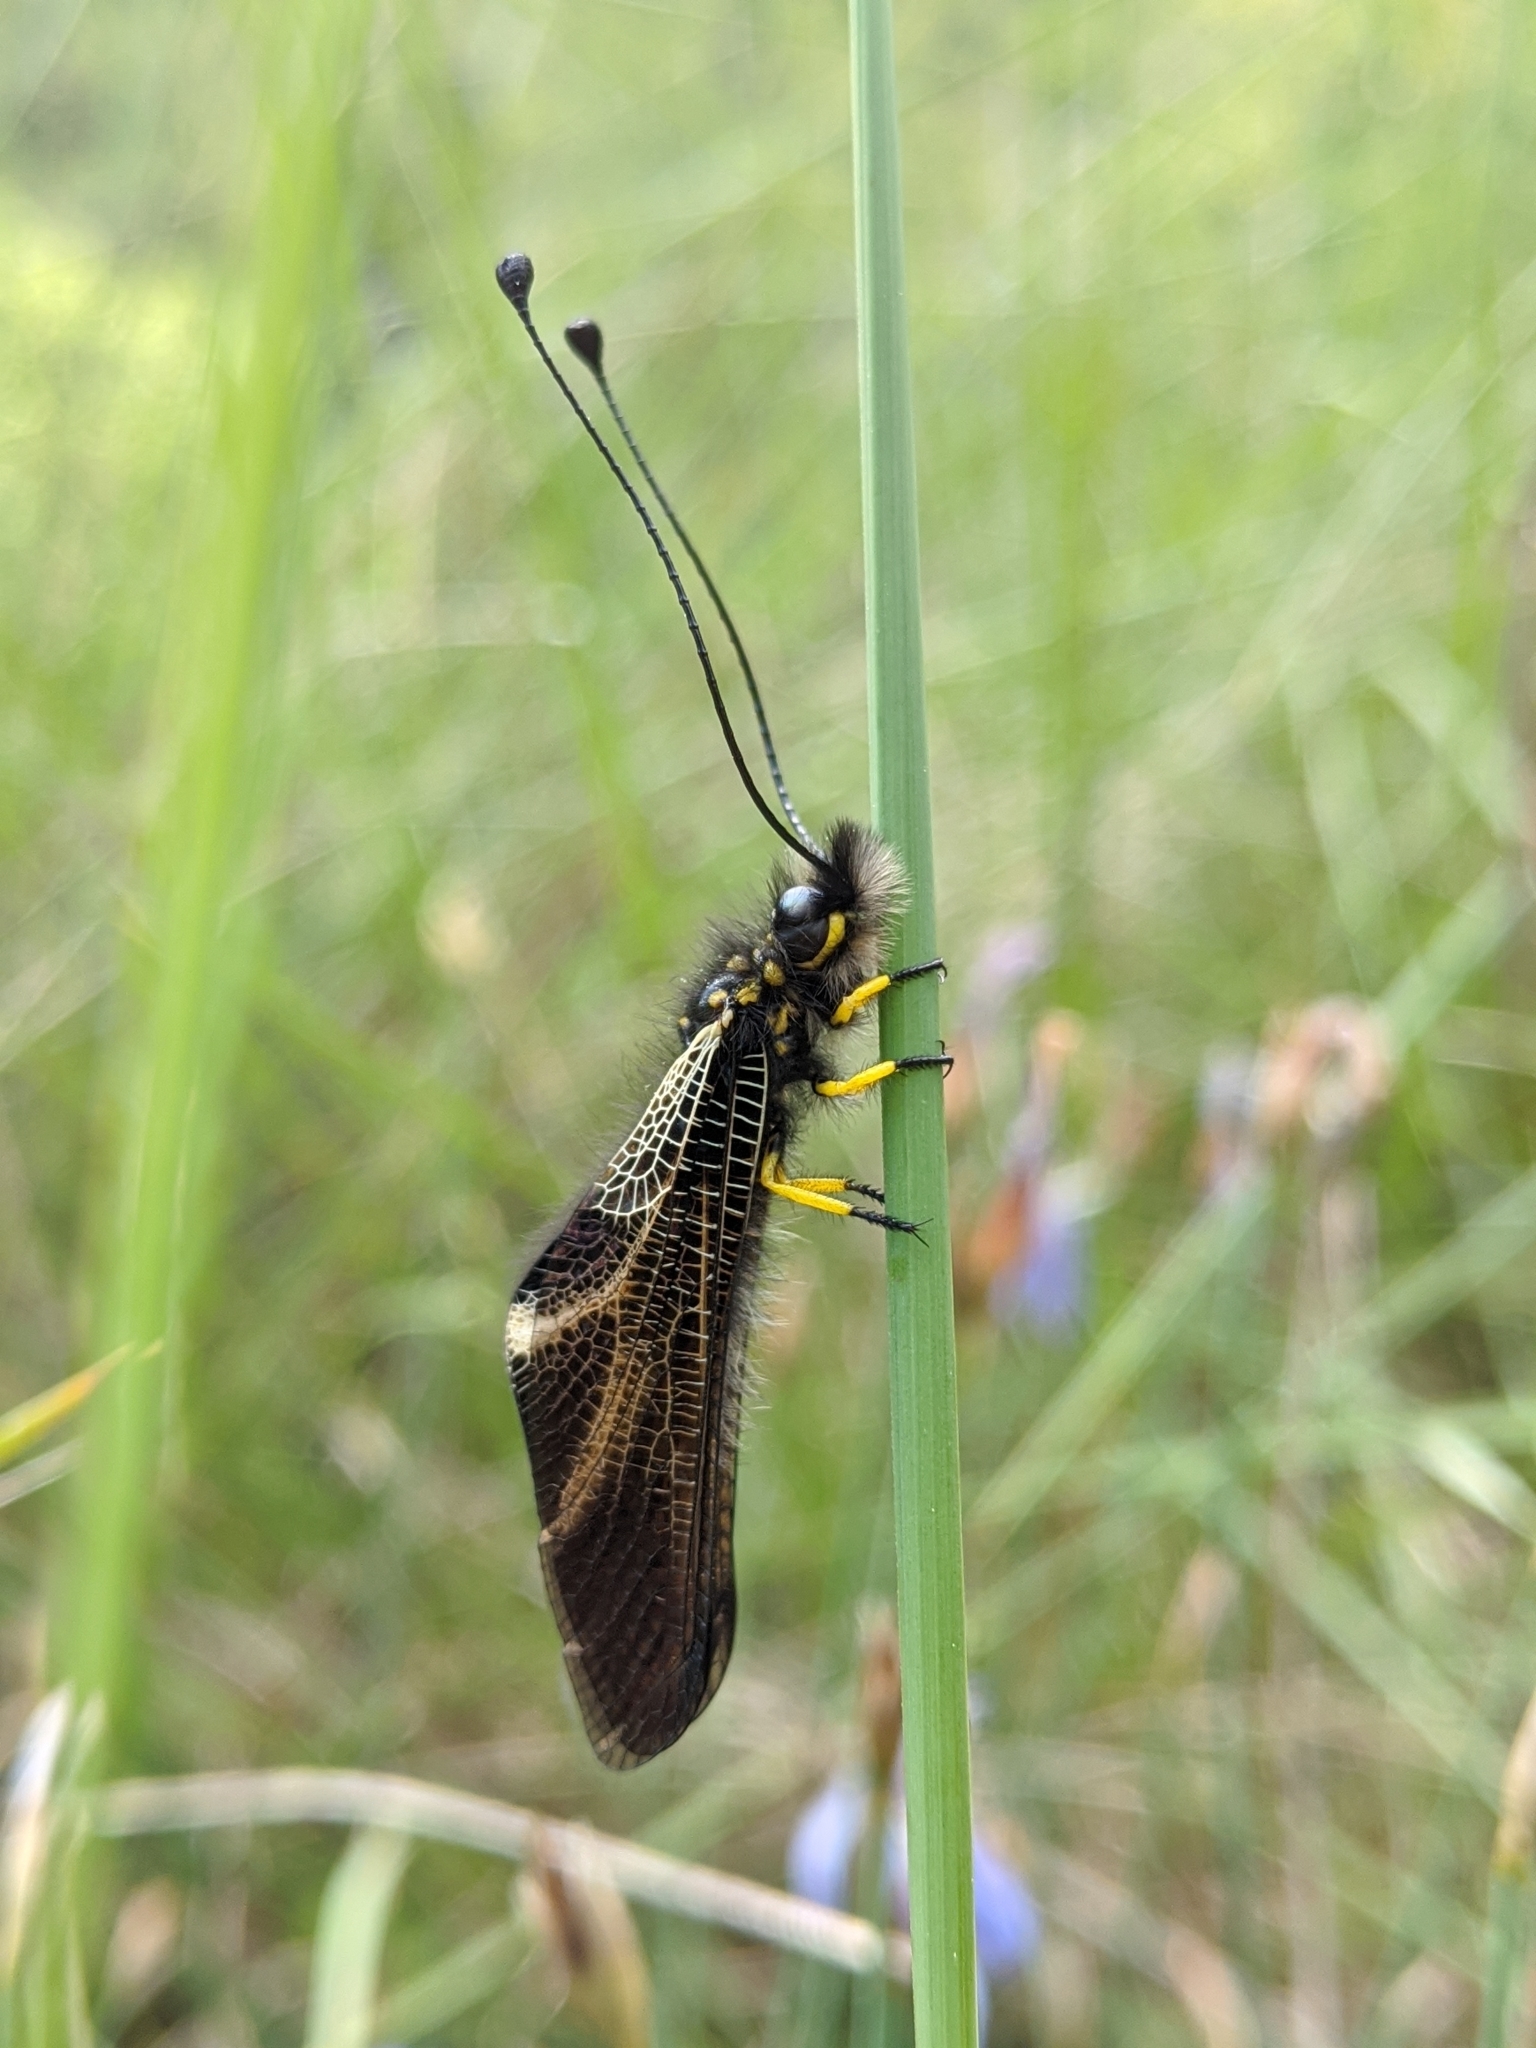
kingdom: Animalia
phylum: Arthropoda
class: Insecta
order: Neuroptera
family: Ascalaphidae
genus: Libelloides
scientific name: Libelloides hispanicus
